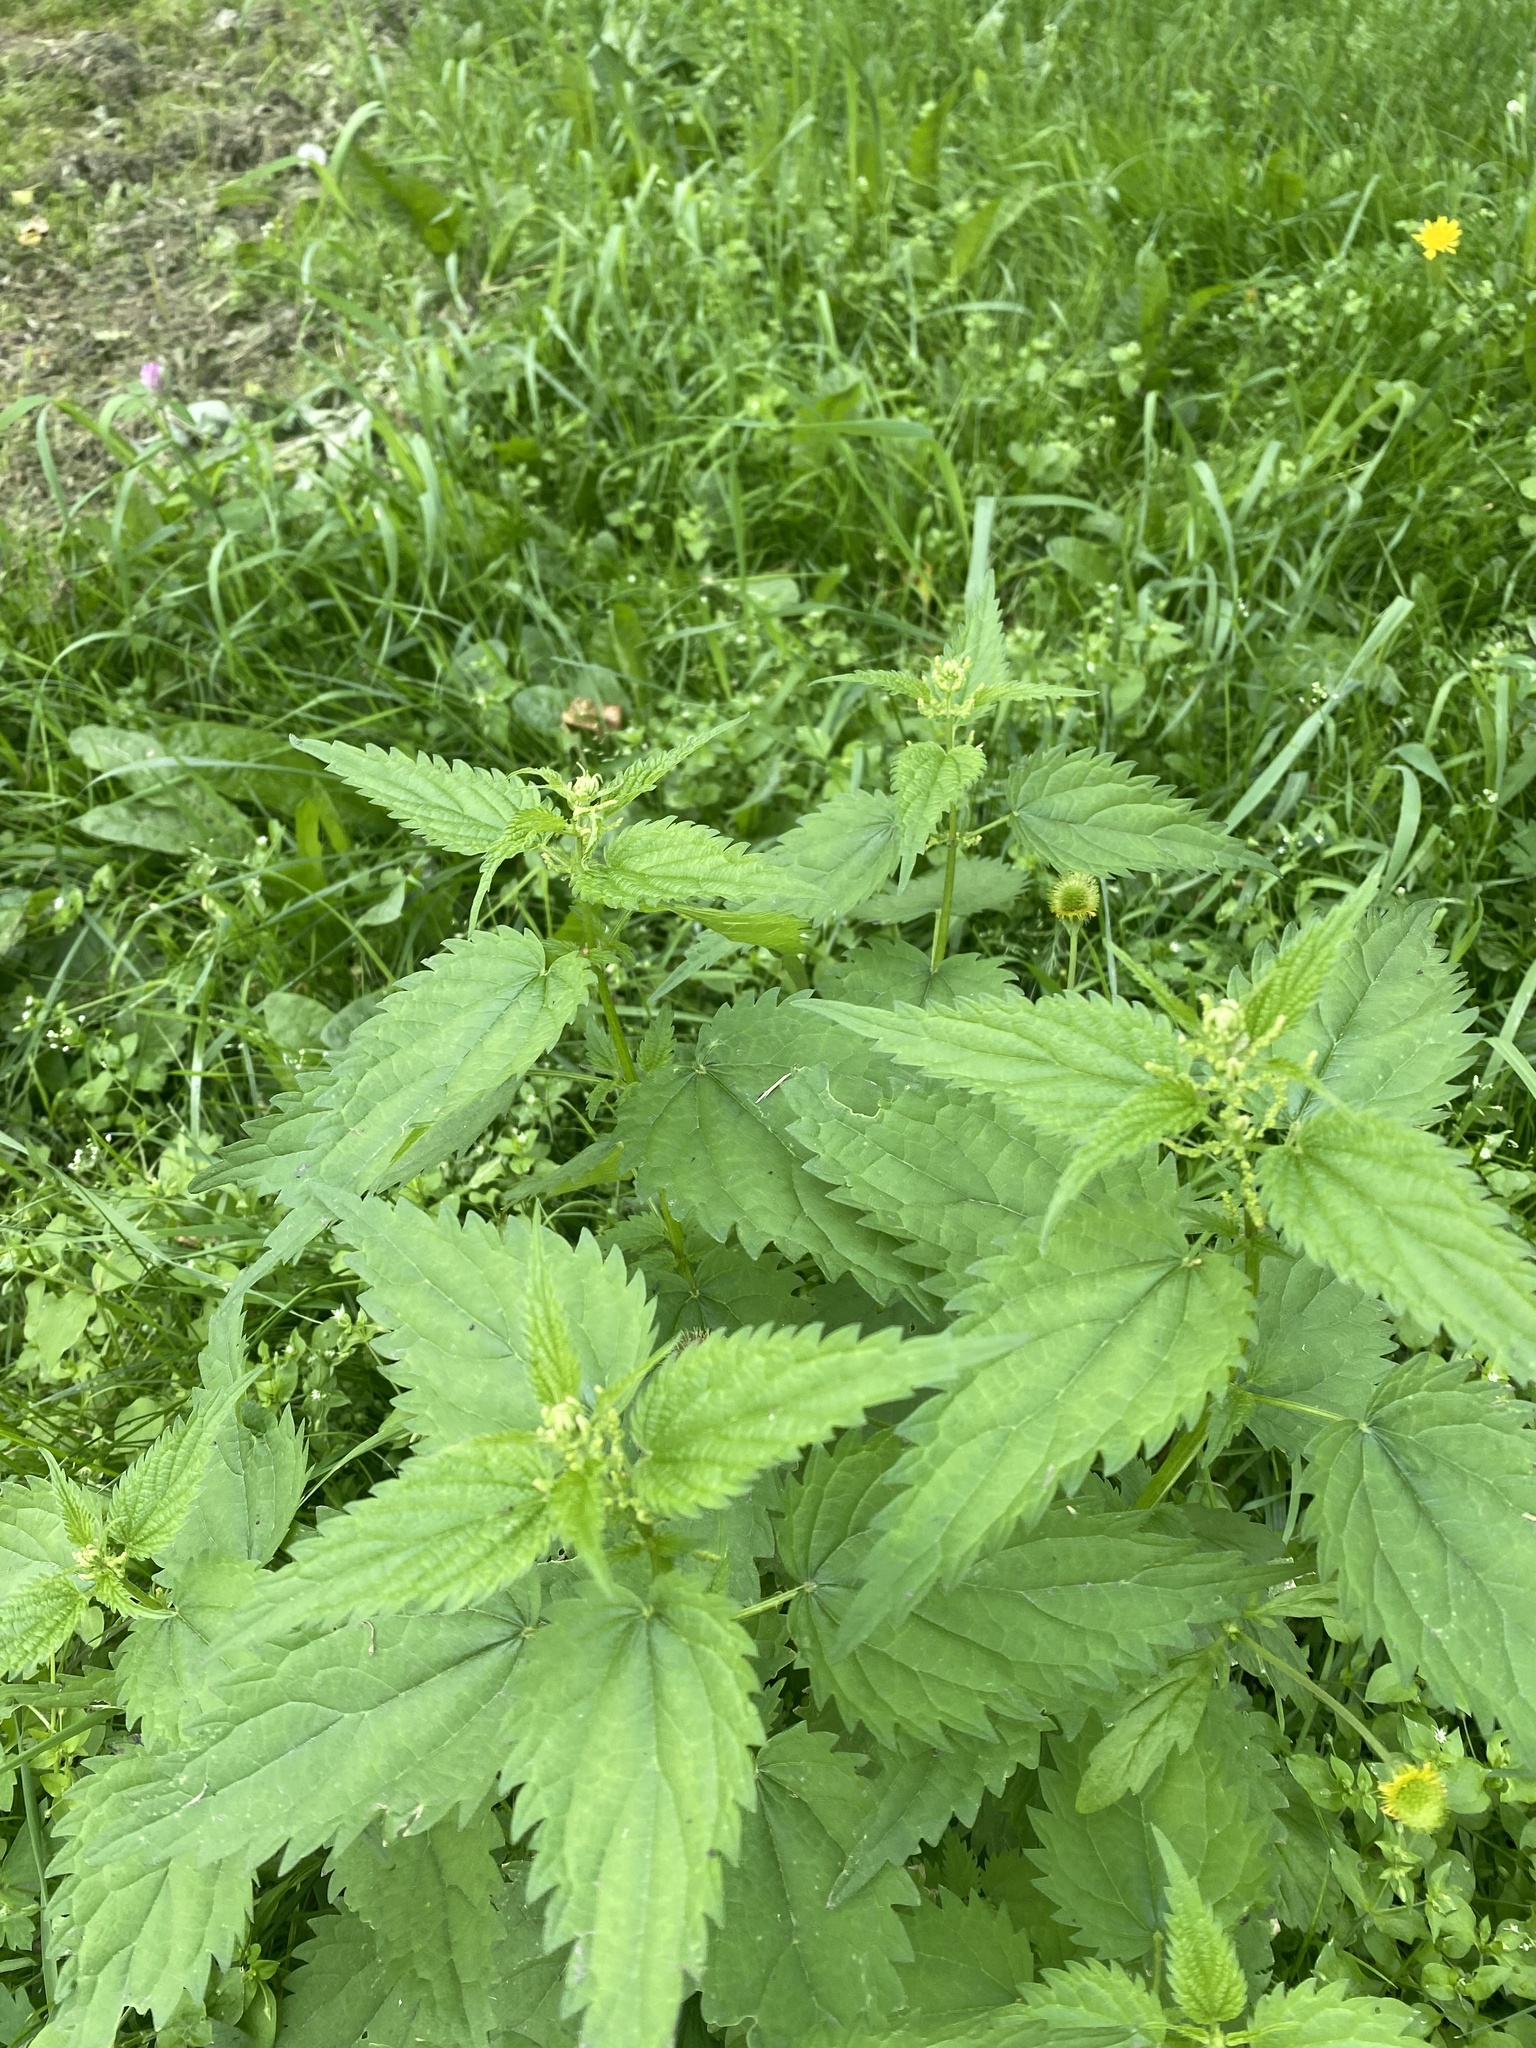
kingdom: Plantae
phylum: Tracheophyta
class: Magnoliopsida
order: Rosales
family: Urticaceae
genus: Urtica
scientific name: Urtica dioica
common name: Common nettle
